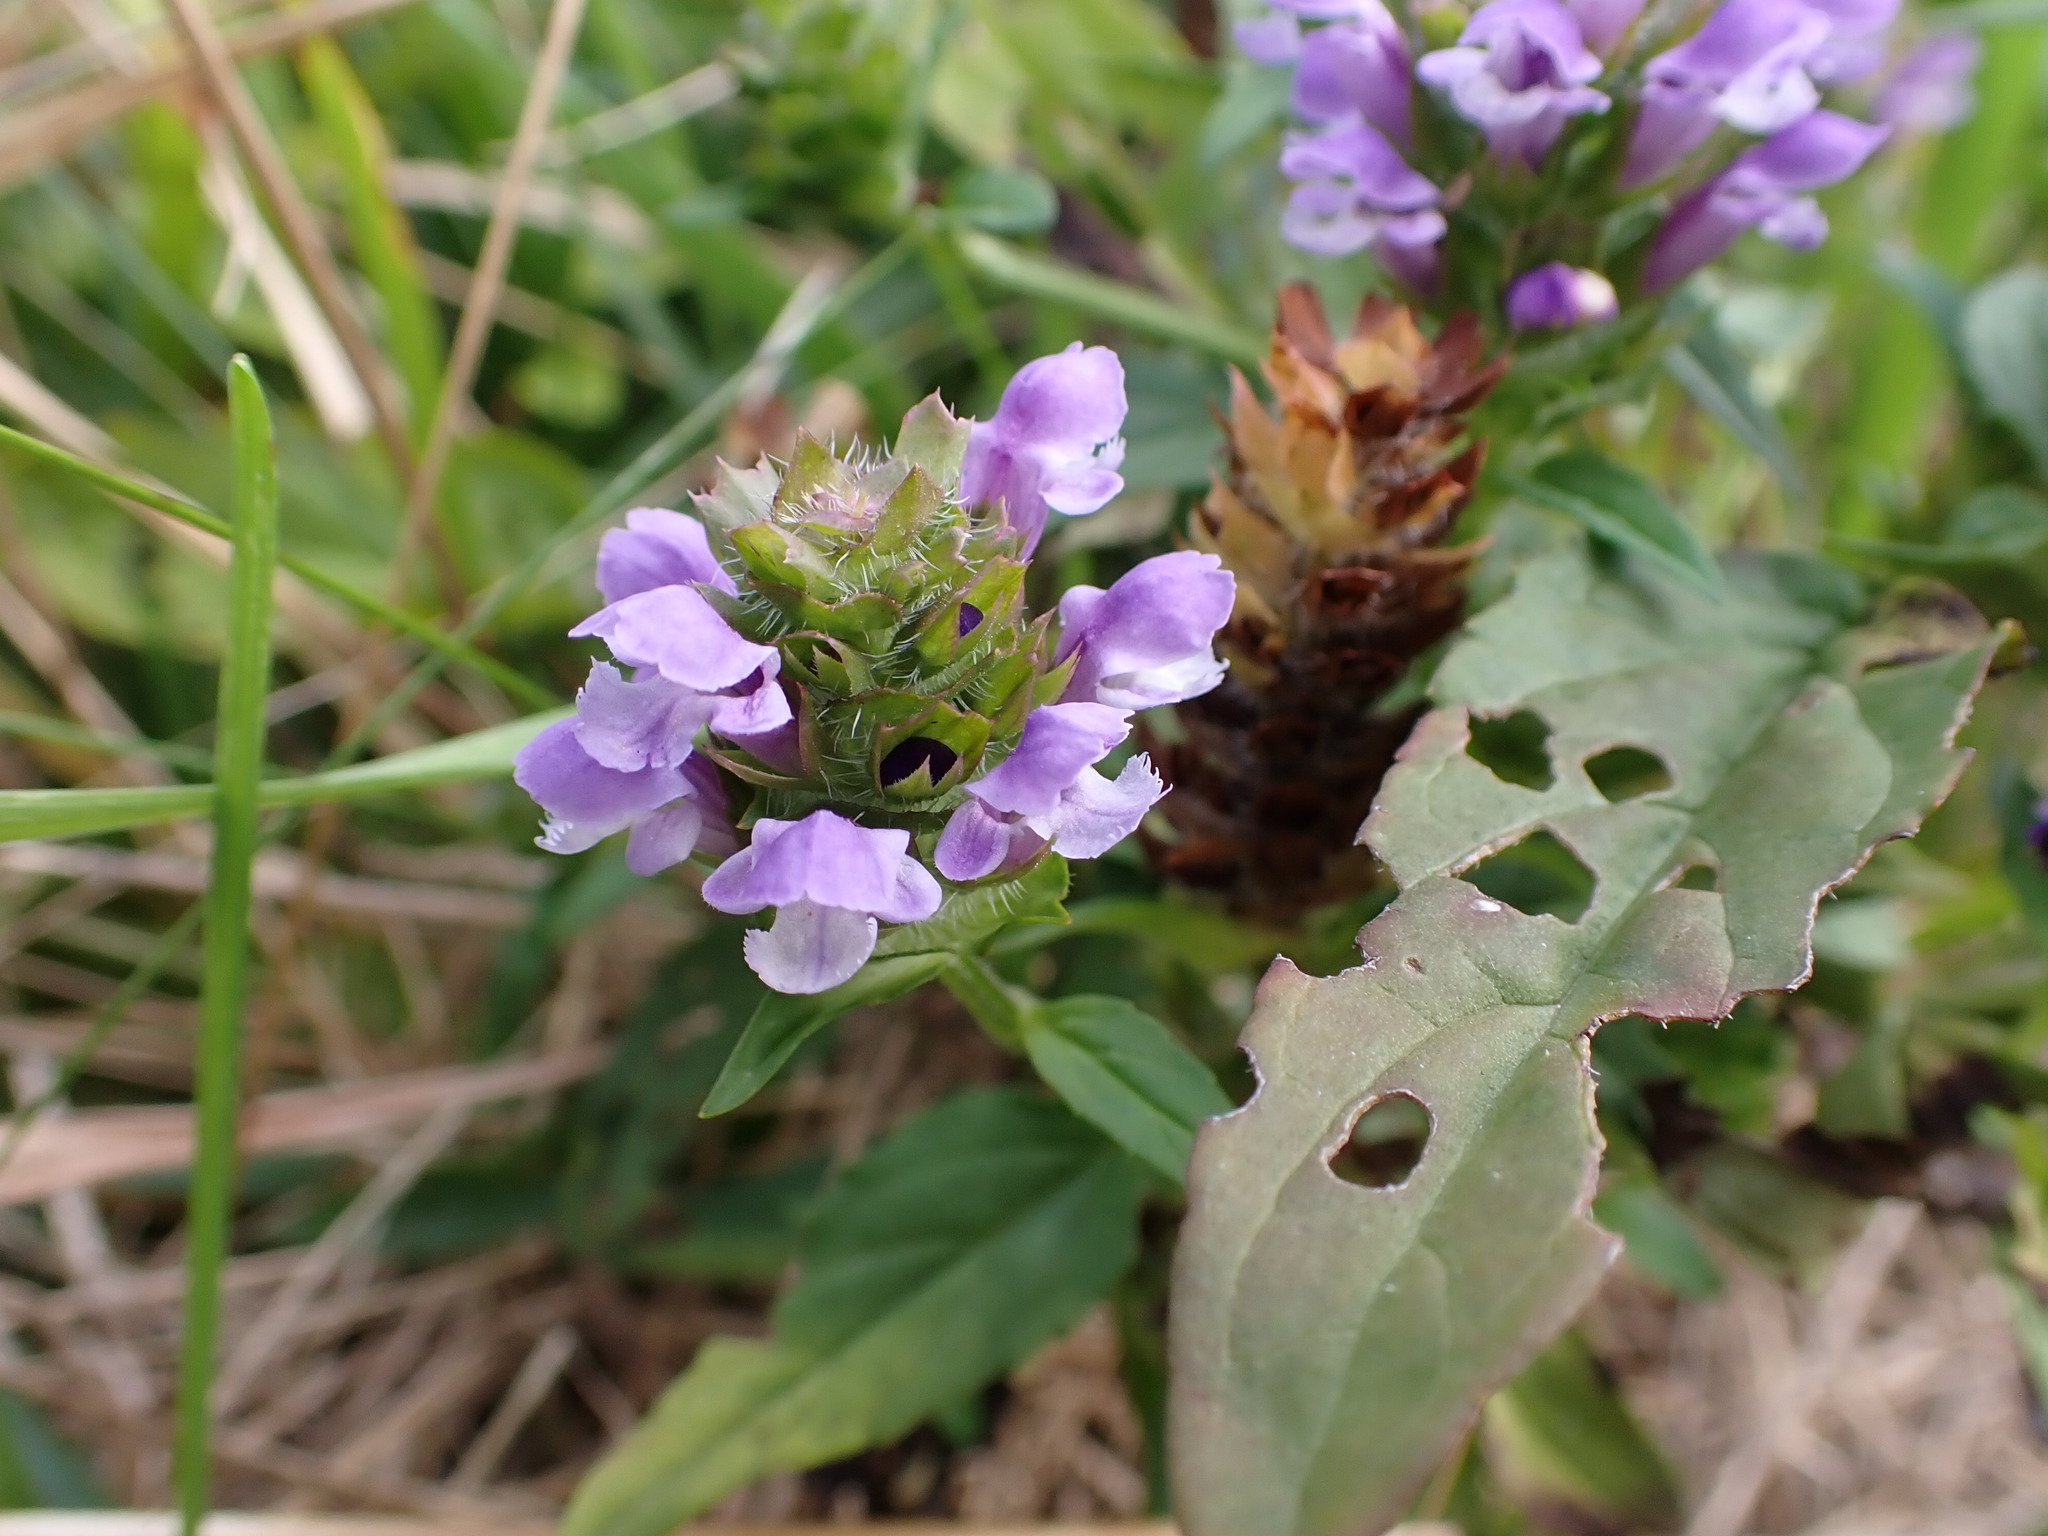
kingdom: Plantae
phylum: Tracheophyta
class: Magnoliopsida
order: Lamiales
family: Lamiaceae
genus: Prunella
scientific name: Prunella vulgaris
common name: Heal-all
